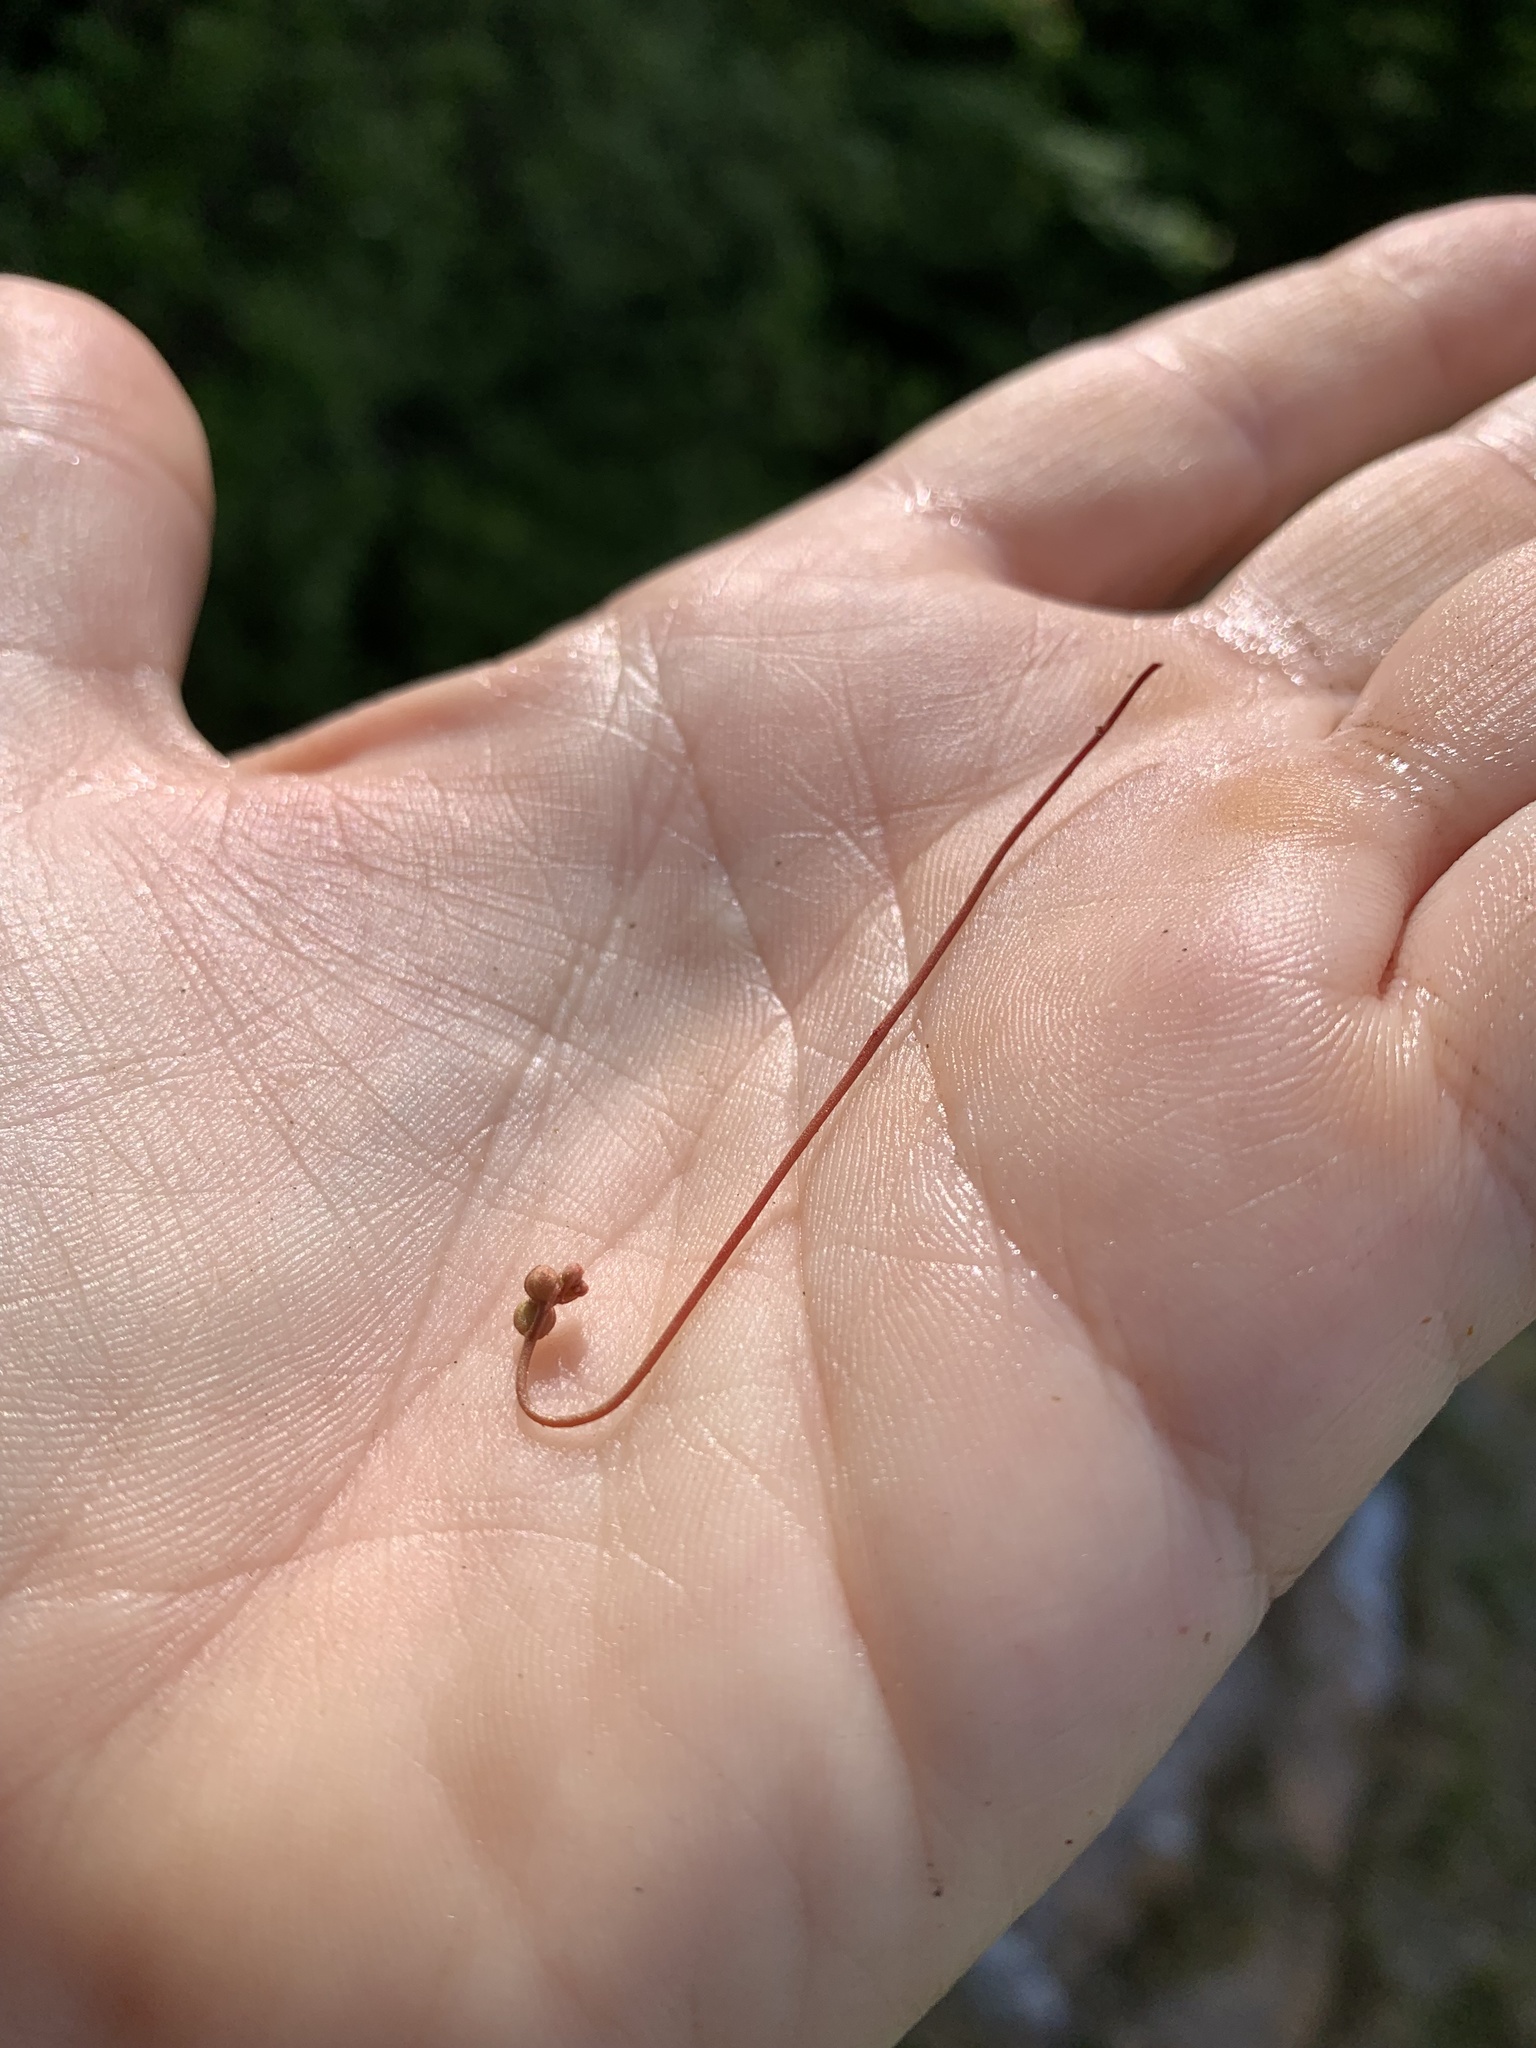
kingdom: Plantae
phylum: Tracheophyta
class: Magnoliopsida
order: Caryophyllales
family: Droseraceae
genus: Drosera
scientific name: Drosera capillaris
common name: Pink sundew
